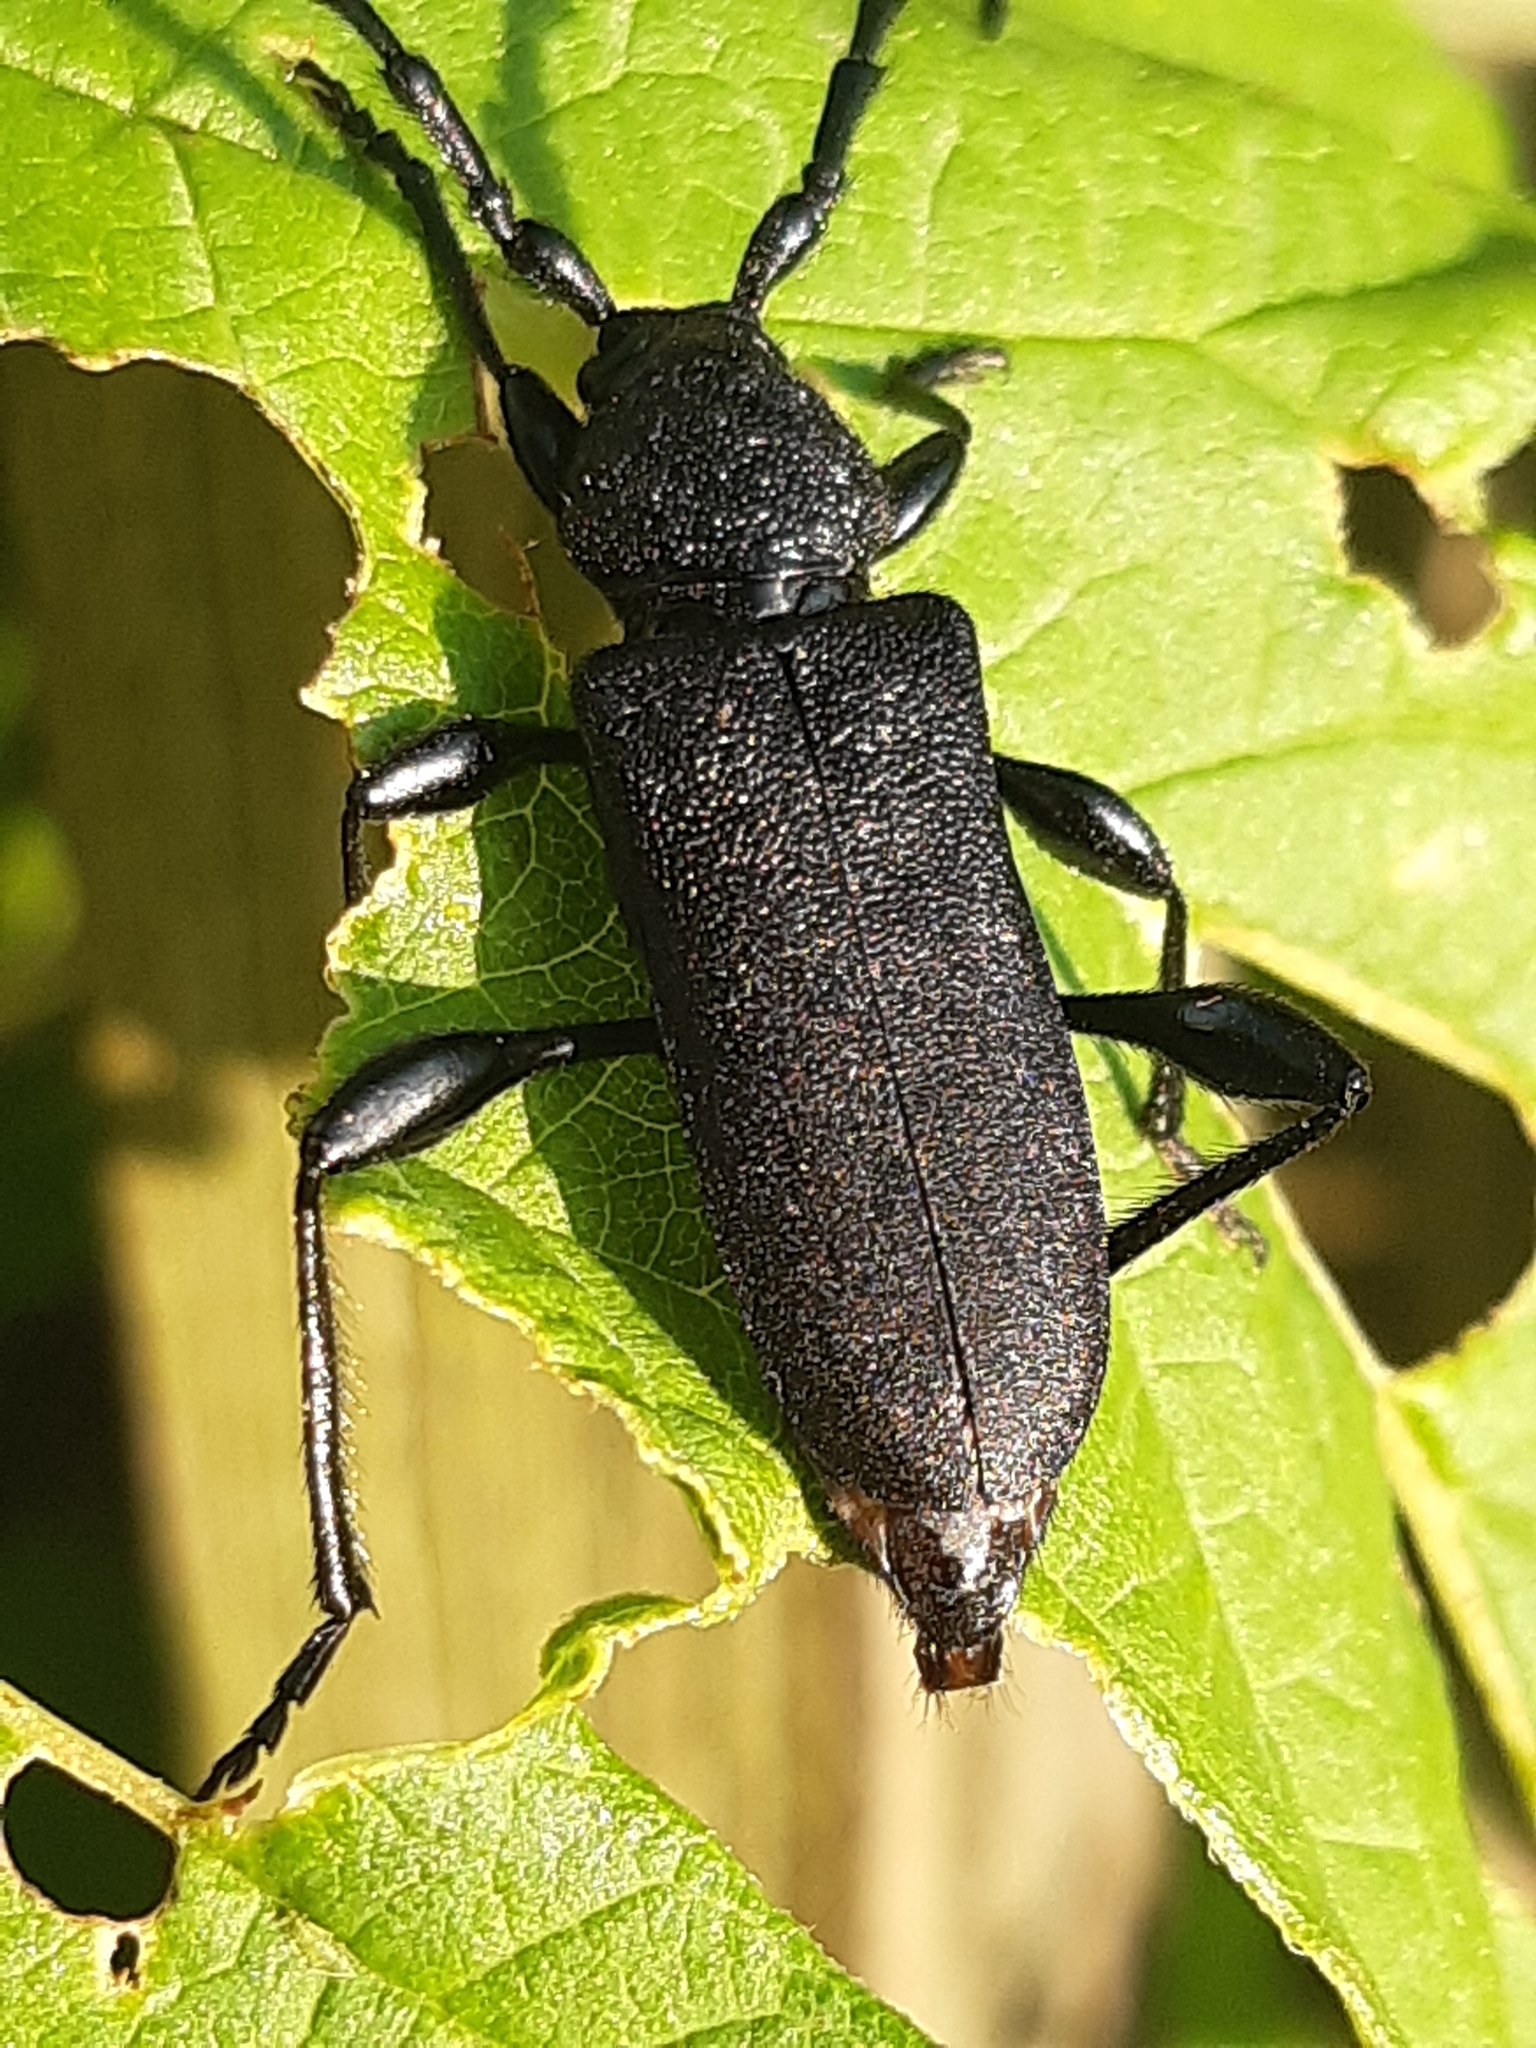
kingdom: Animalia
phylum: Arthropoda
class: Insecta
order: Coleoptera
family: Cerambycidae
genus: Ropalopus
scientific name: Ropalopus clavipes
